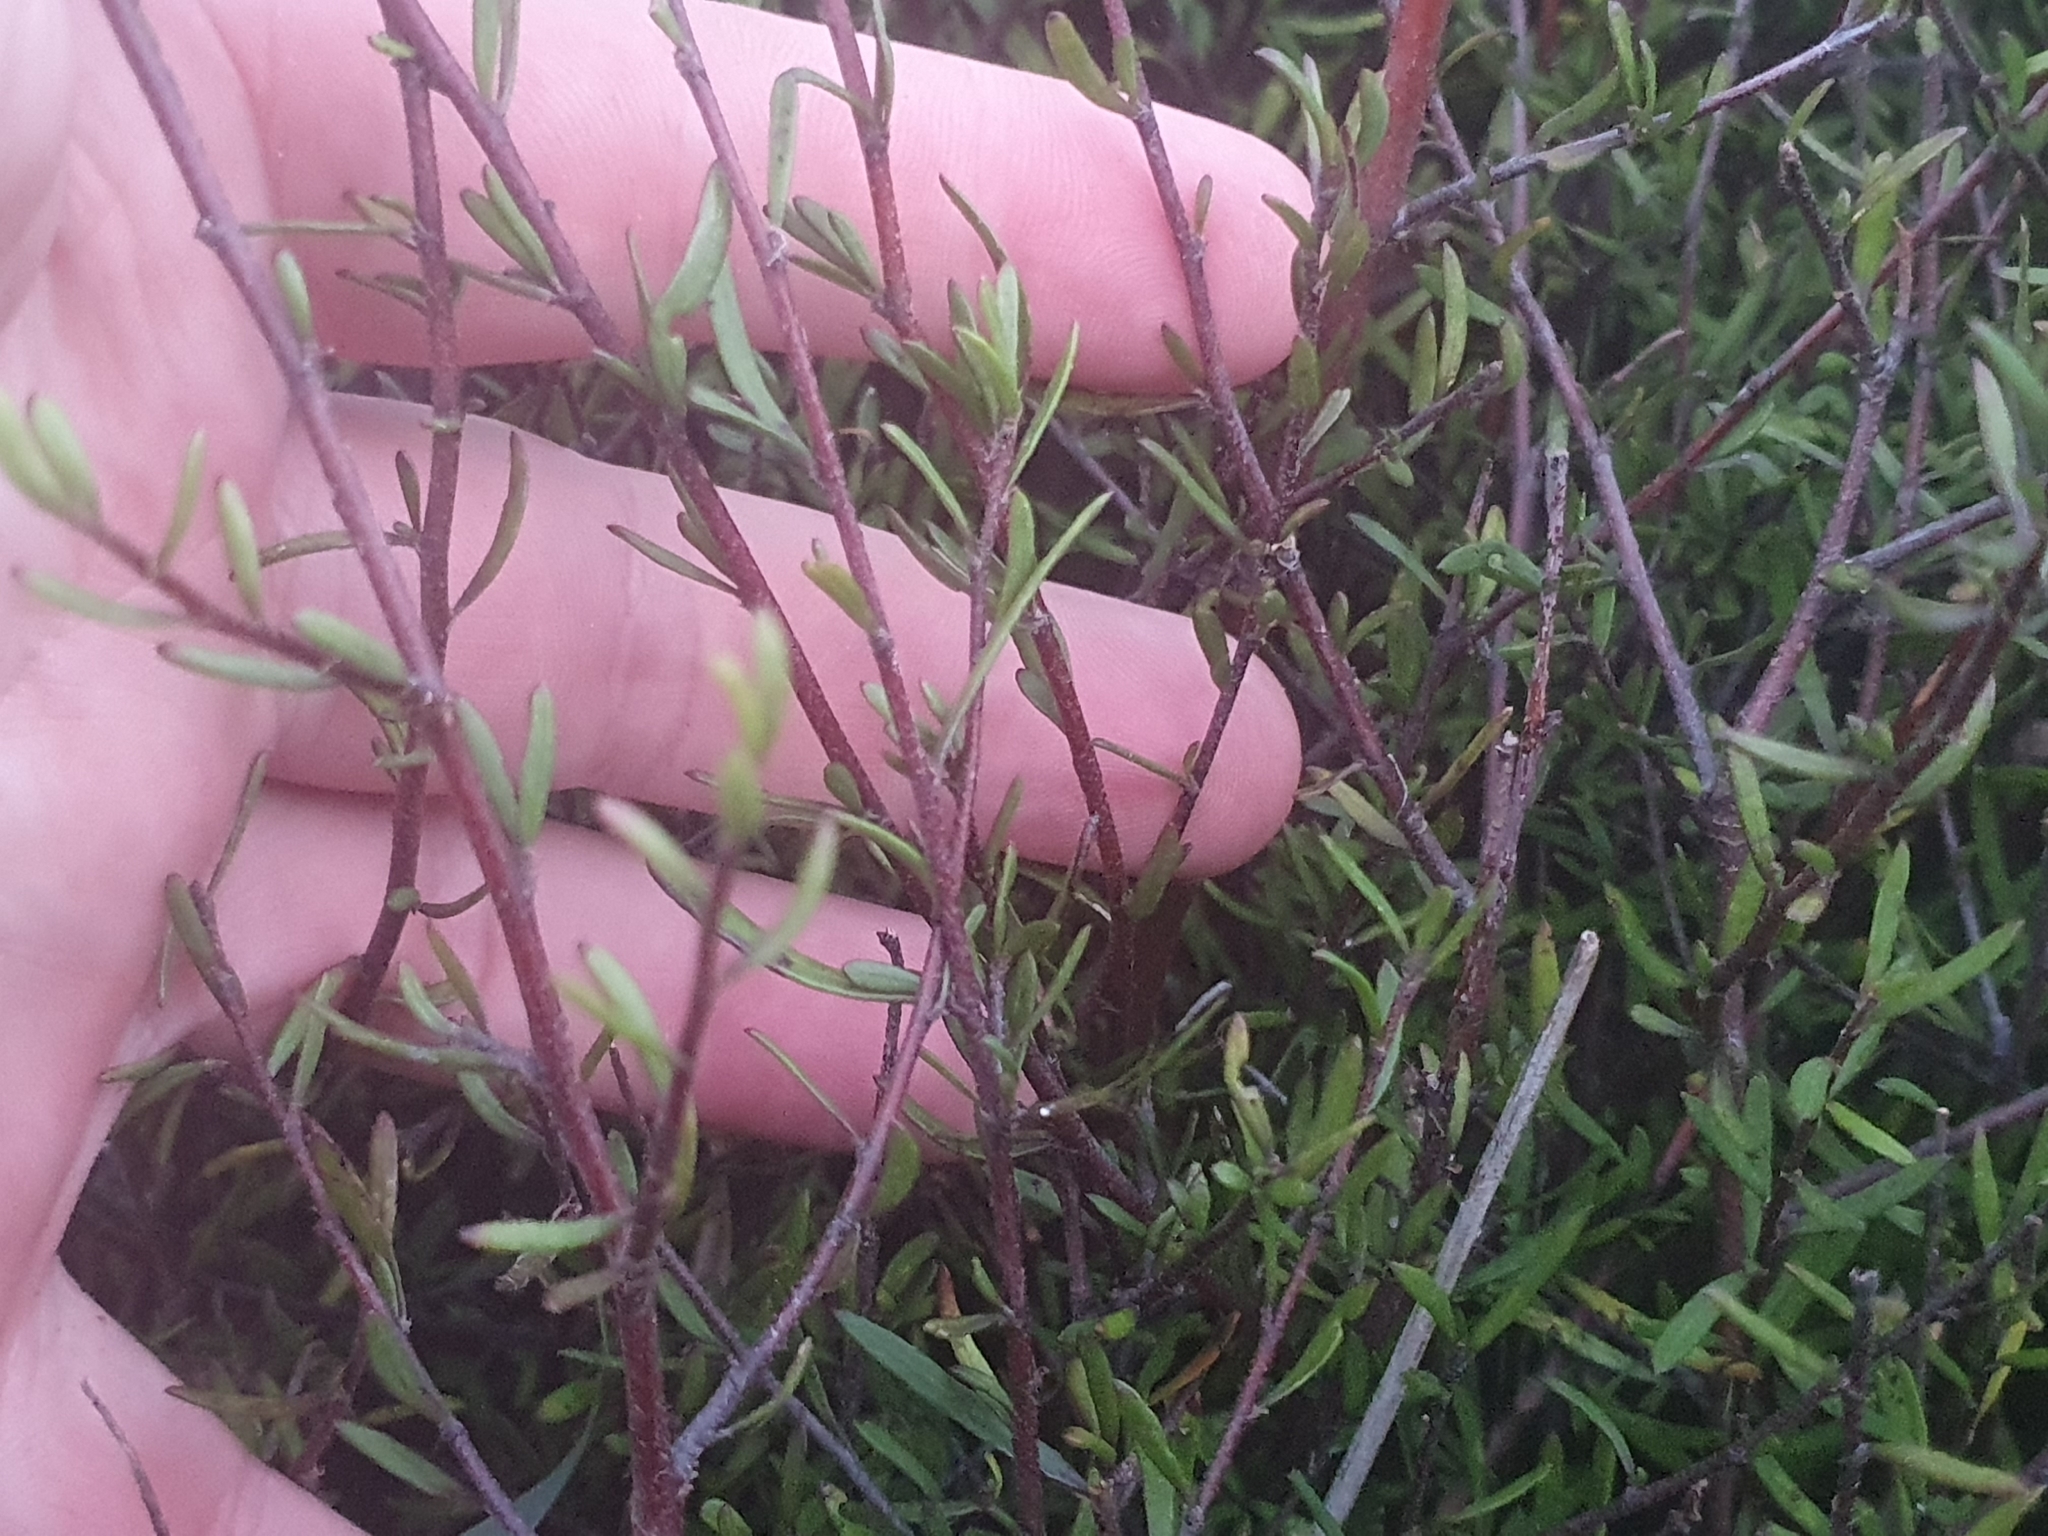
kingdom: Plantae
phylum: Tracheophyta
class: Magnoliopsida
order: Malvales
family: Malvaceae
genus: Plagianthus
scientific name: Plagianthus divaricatus
